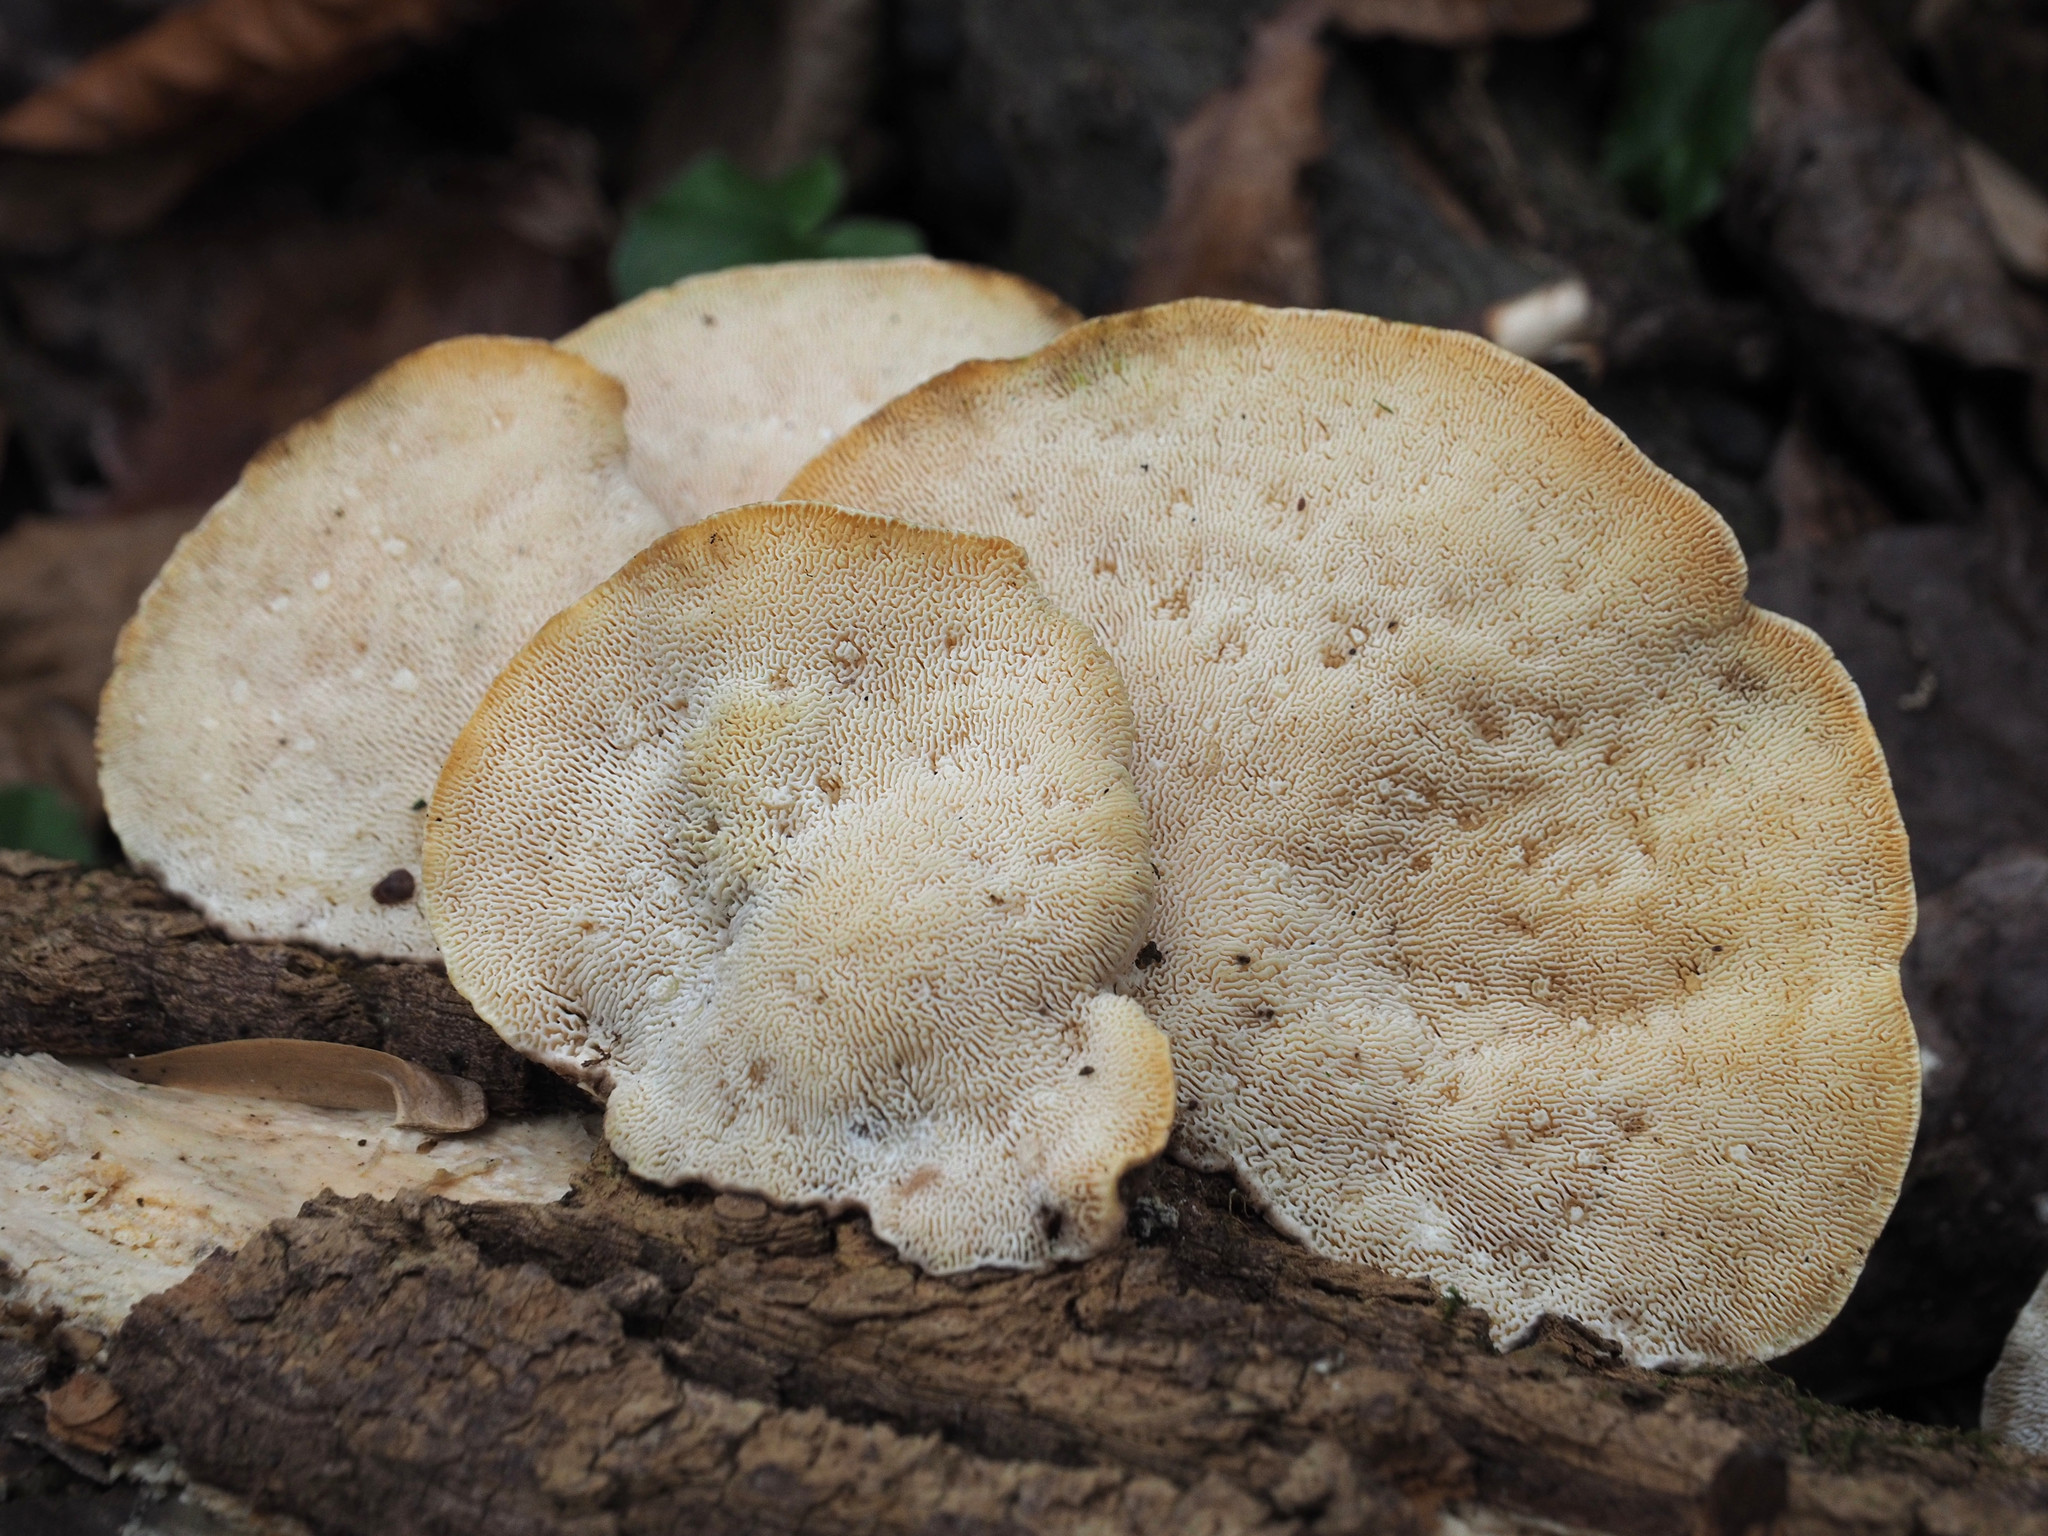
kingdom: Fungi
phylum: Basidiomycota
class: Agaricomycetes
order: Polyporales
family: Polyporaceae
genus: Trametes
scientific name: Trametes gibbosa
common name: Lumpy bracket
